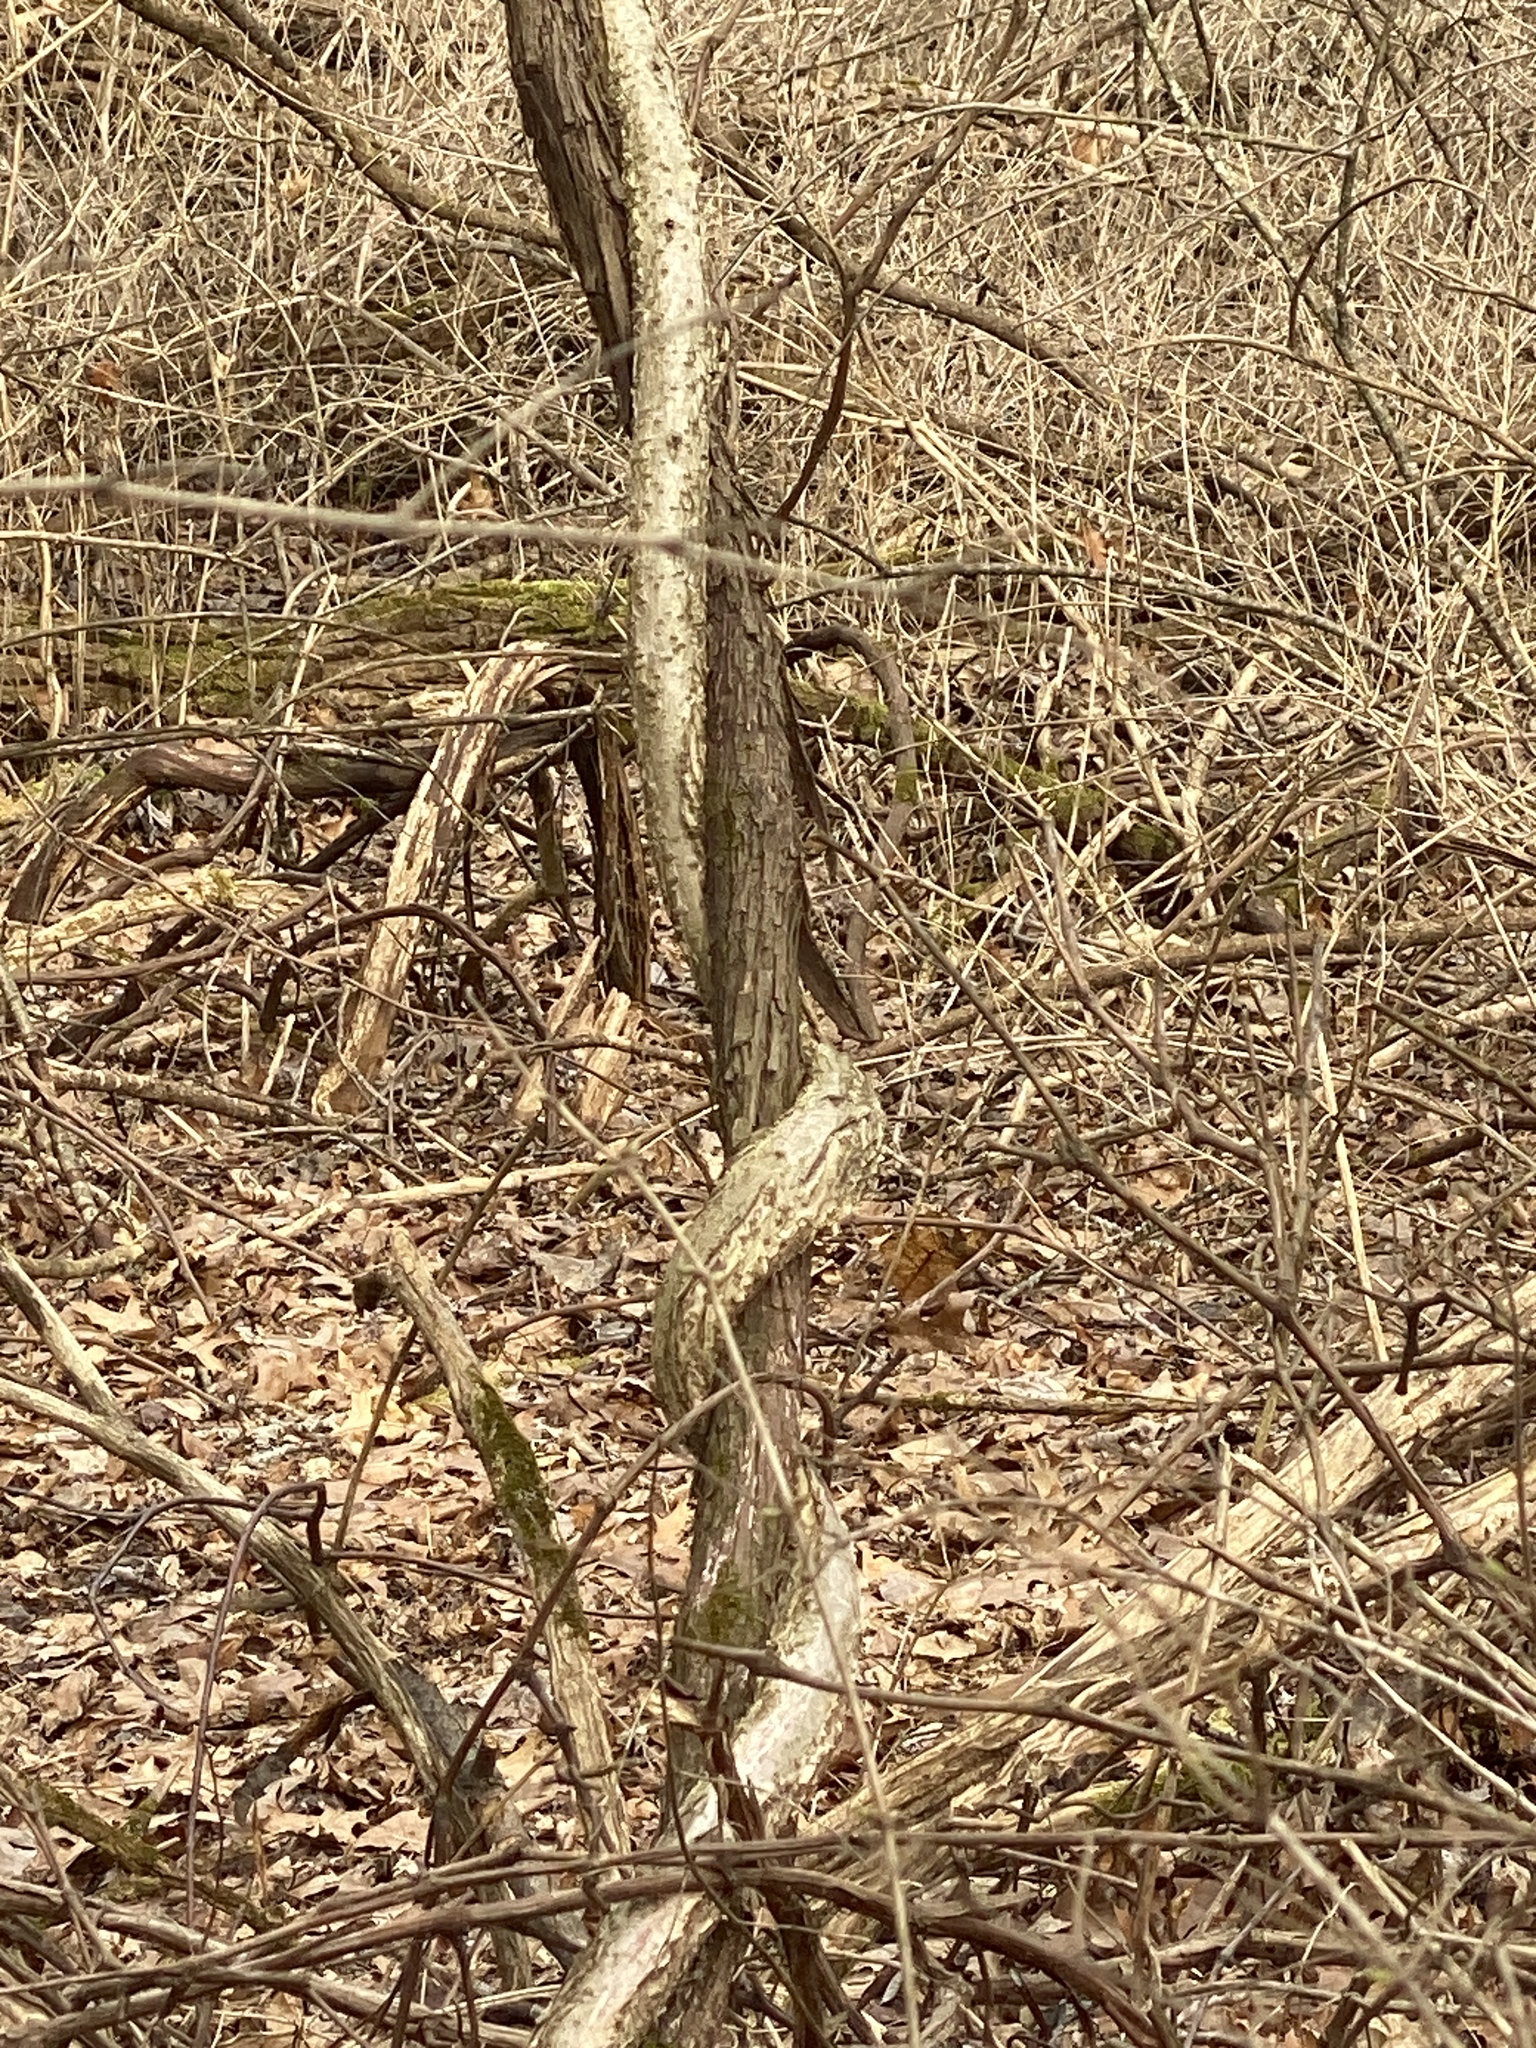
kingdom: Plantae
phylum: Tracheophyta
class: Magnoliopsida
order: Celastrales
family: Celastraceae
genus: Celastrus
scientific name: Celastrus orbiculatus
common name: Oriental bittersweet
